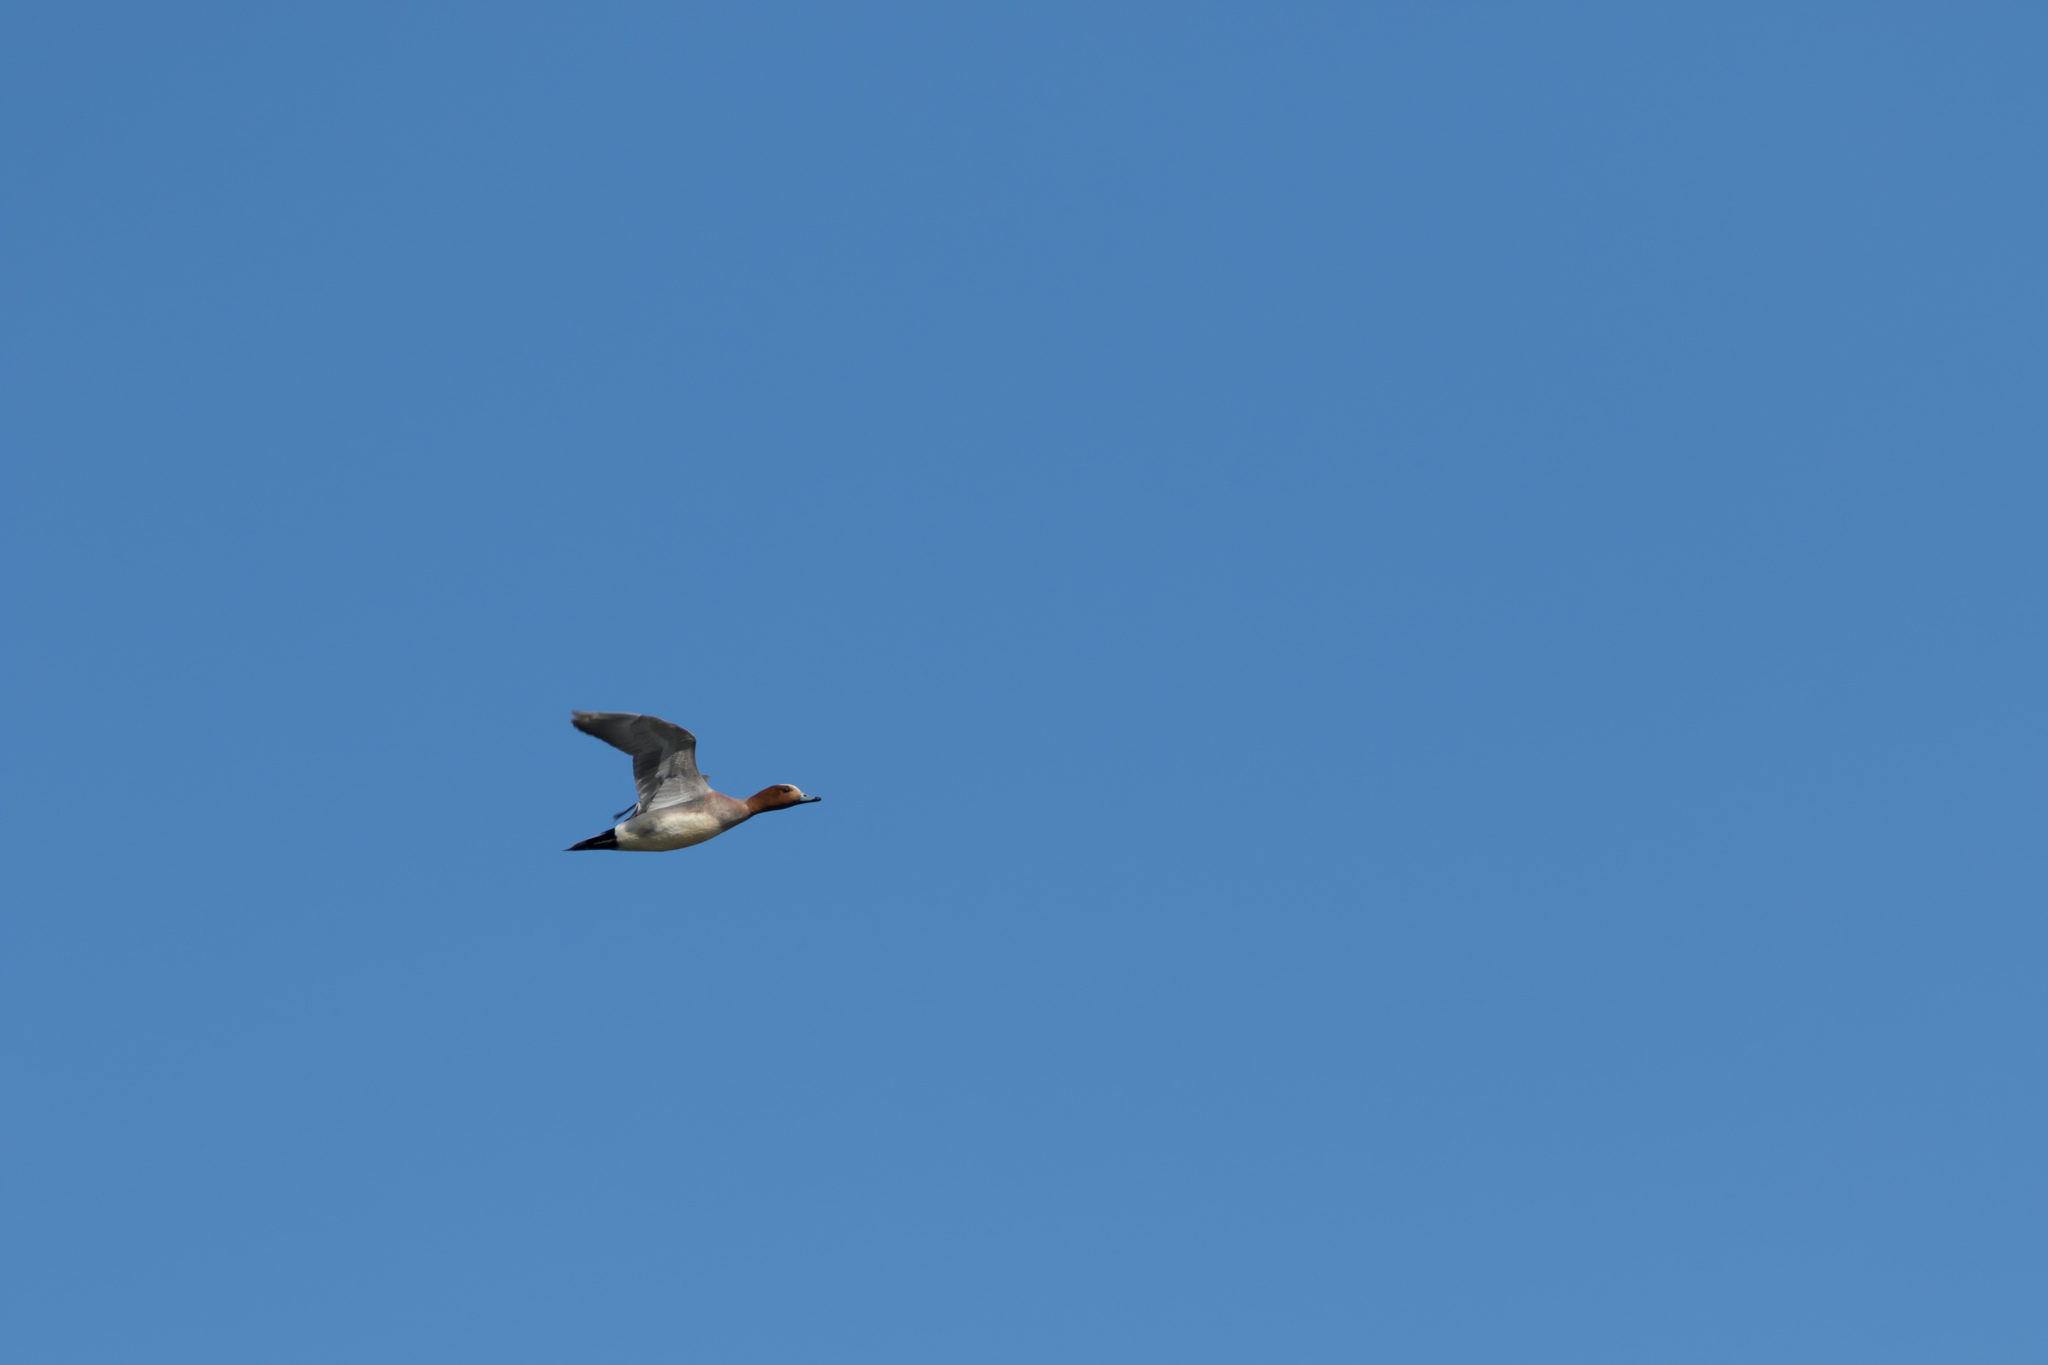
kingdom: Animalia
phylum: Chordata
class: Aves
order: Anseriformes
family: Anatidae
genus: Mareca
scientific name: Mareca penelope
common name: Eurasian wigeon
